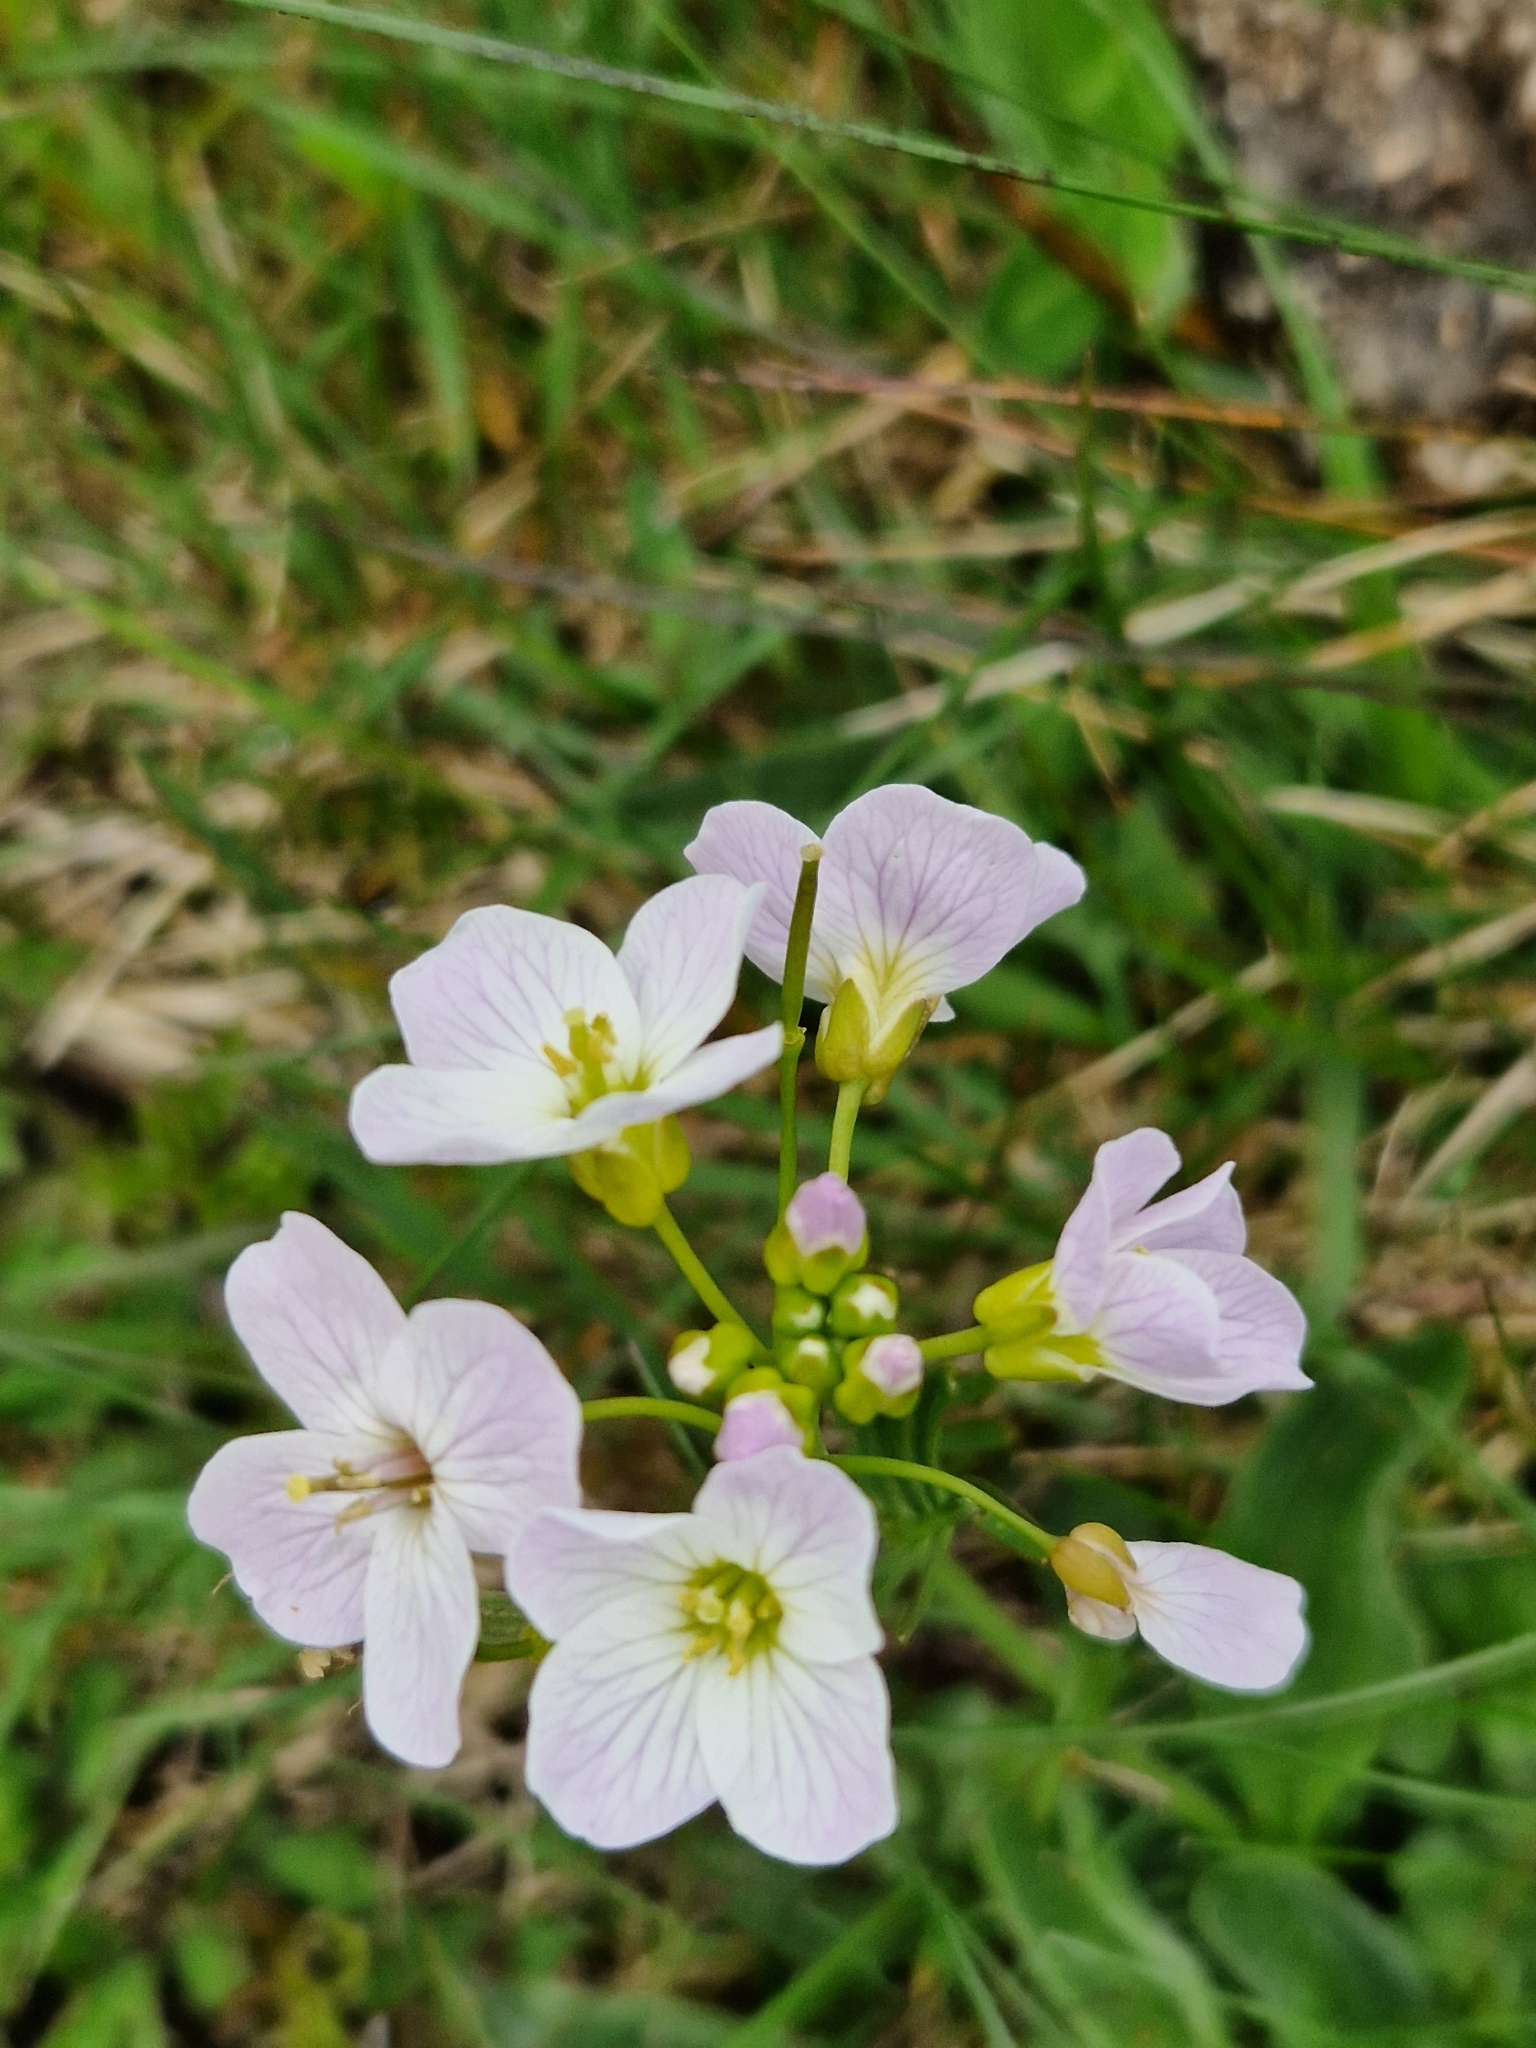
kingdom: Plantae
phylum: Tracheophyta
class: Magnoliopsida
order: Brassicales
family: Brassicaceae
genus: Cardamine
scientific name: Cardamine pratensis
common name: Cuckoo flower
